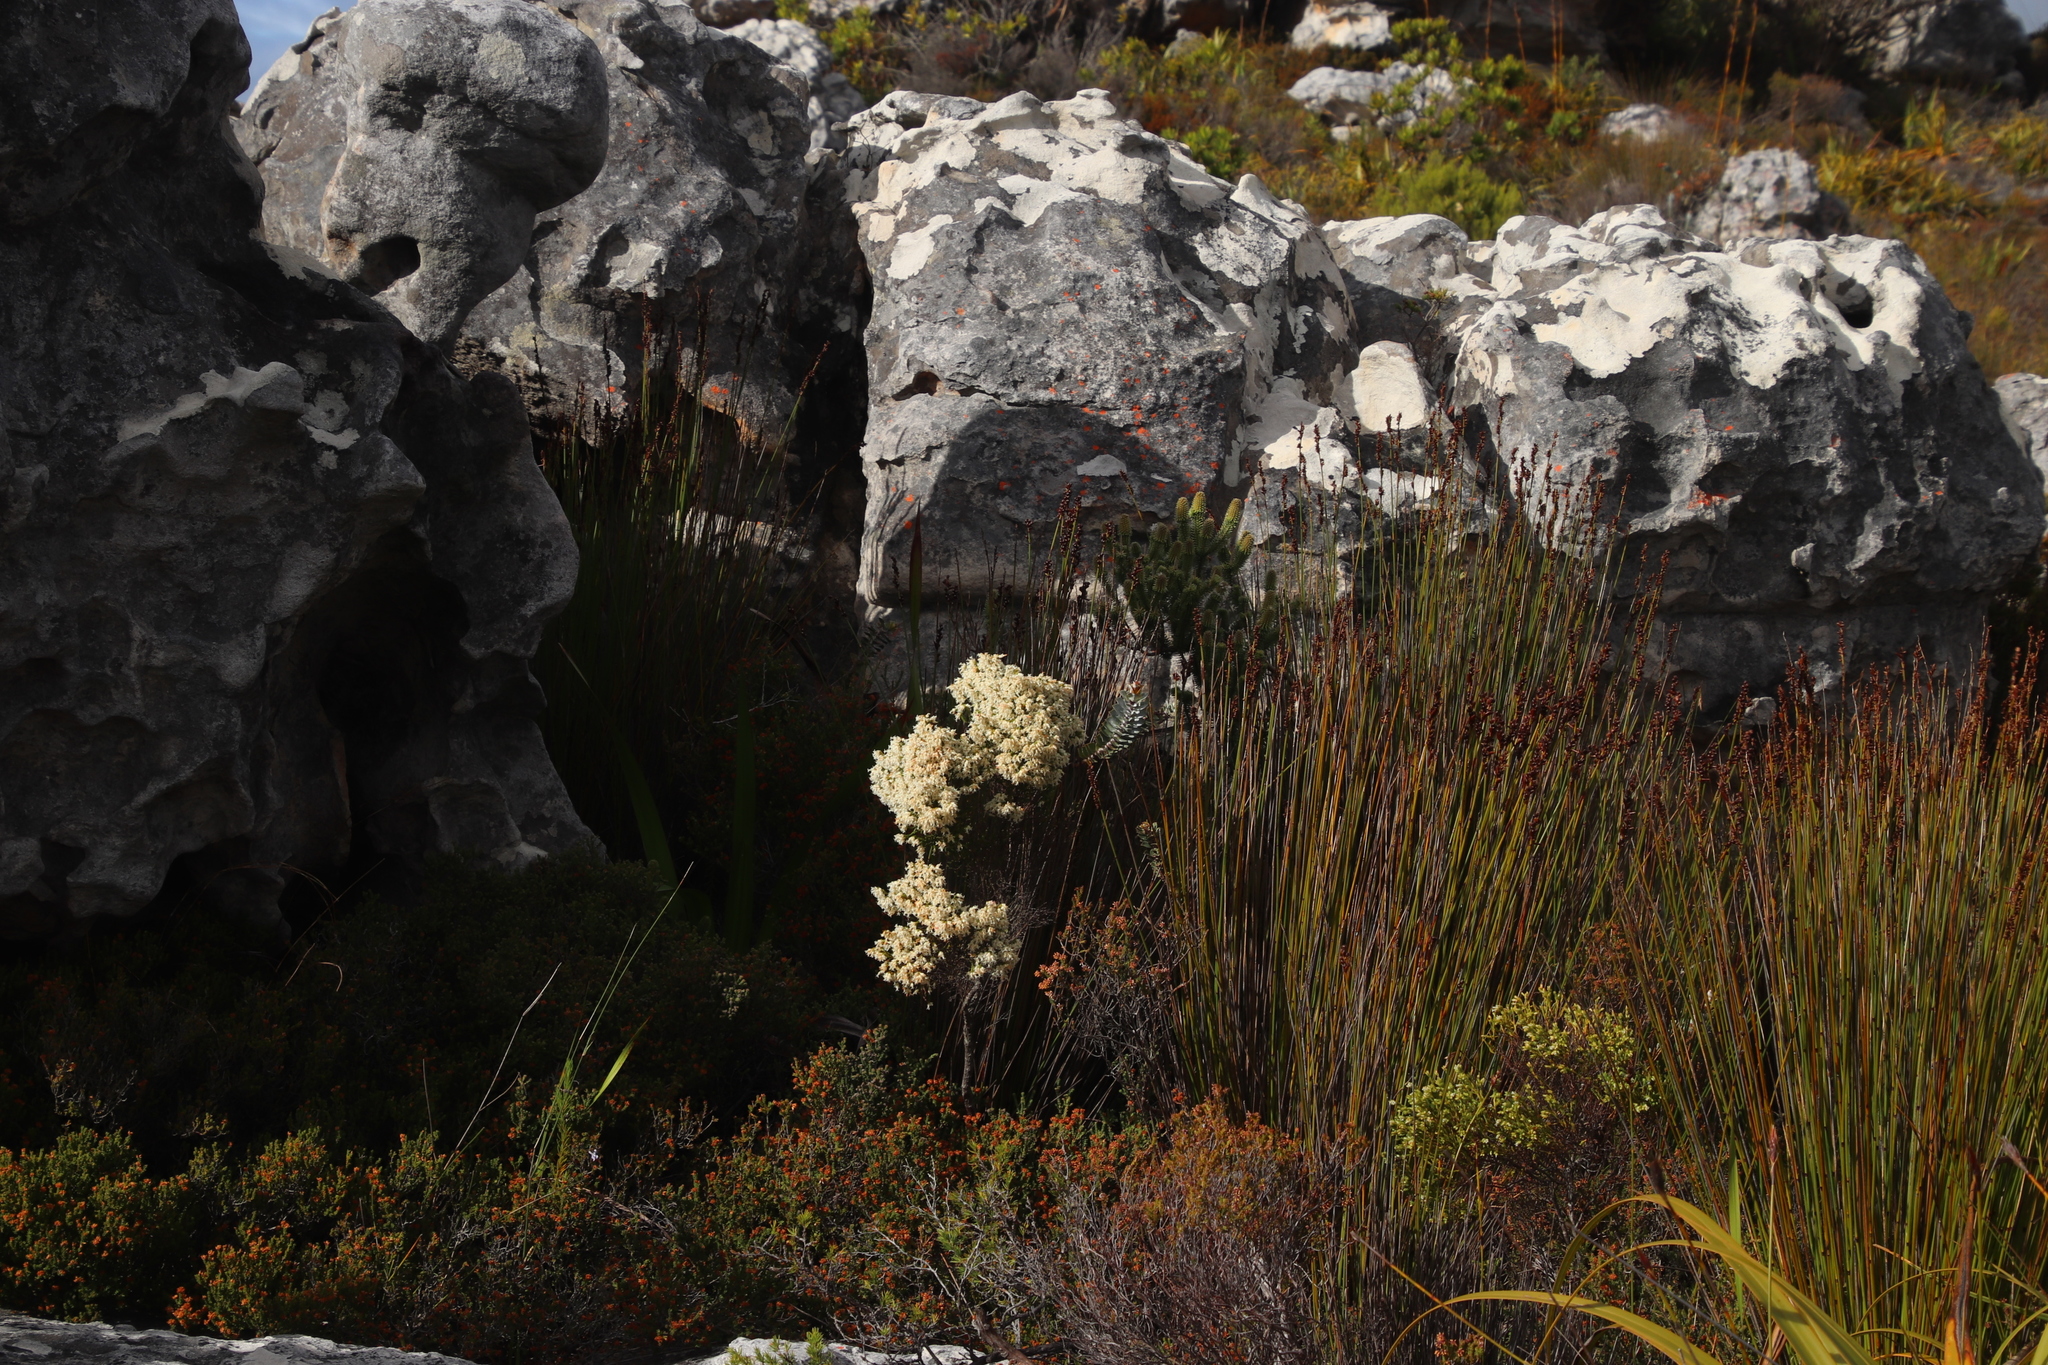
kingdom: Plantae
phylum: Tracheophyta
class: Magnoliopsida
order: Ericales
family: Ericaceae
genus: Erica
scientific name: Erica lutea
